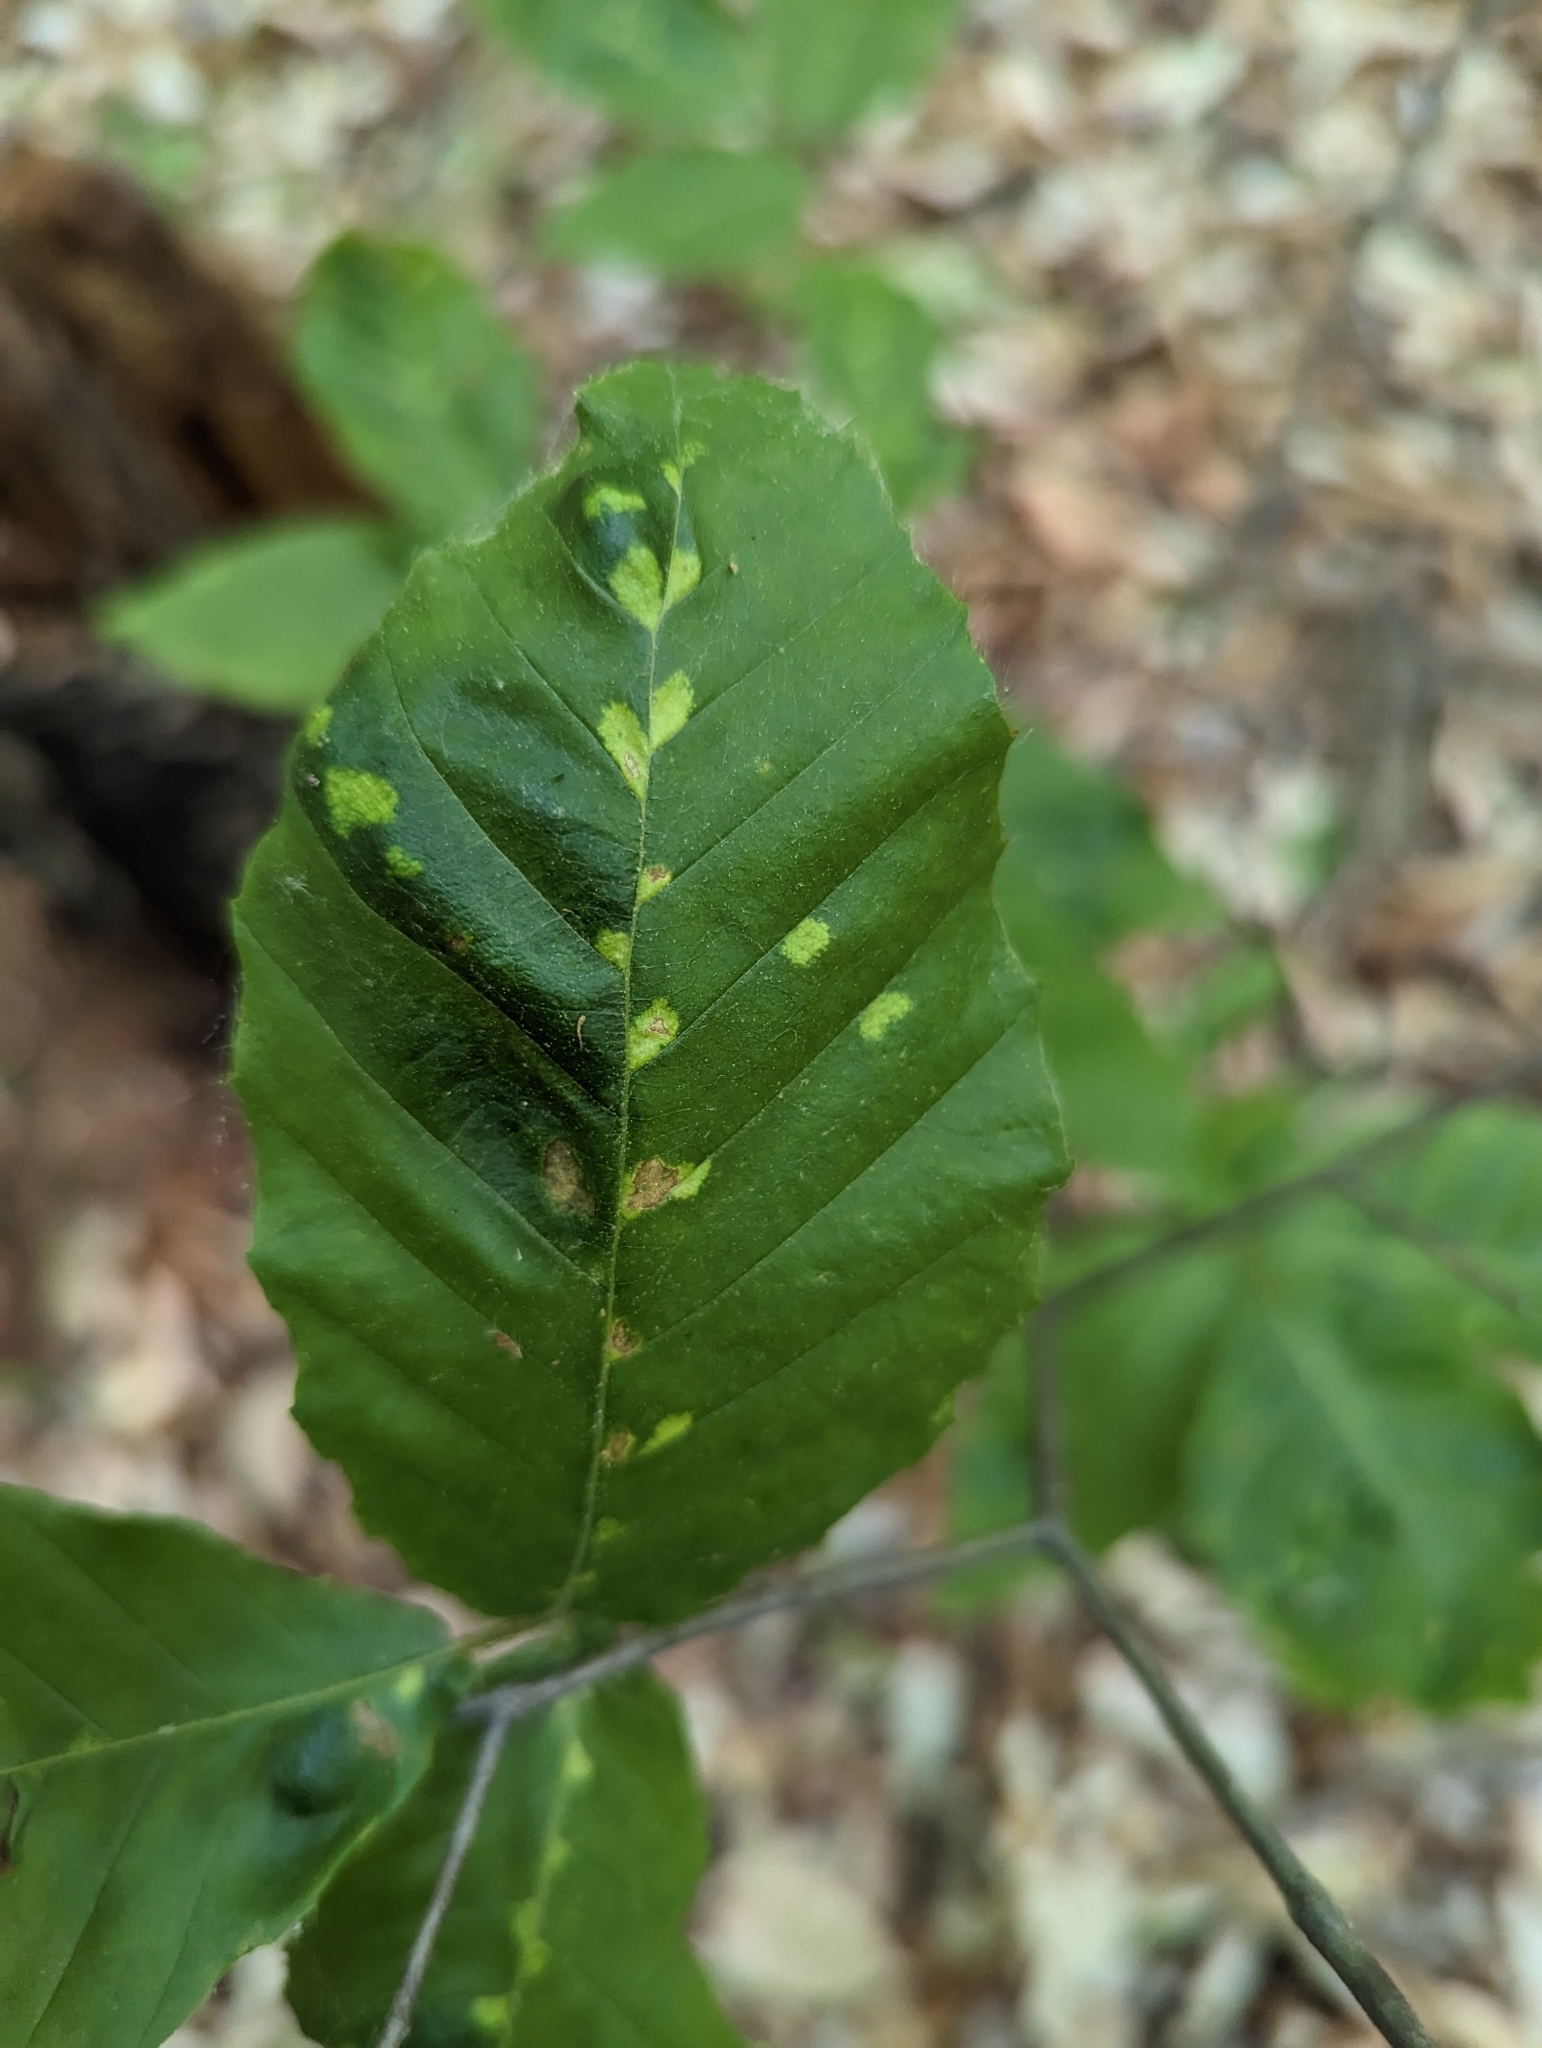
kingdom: Animalia
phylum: Arthropoda
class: Arachnida
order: Trombidiformes
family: Eriophyidae
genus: Acalitus
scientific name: Acalitus
